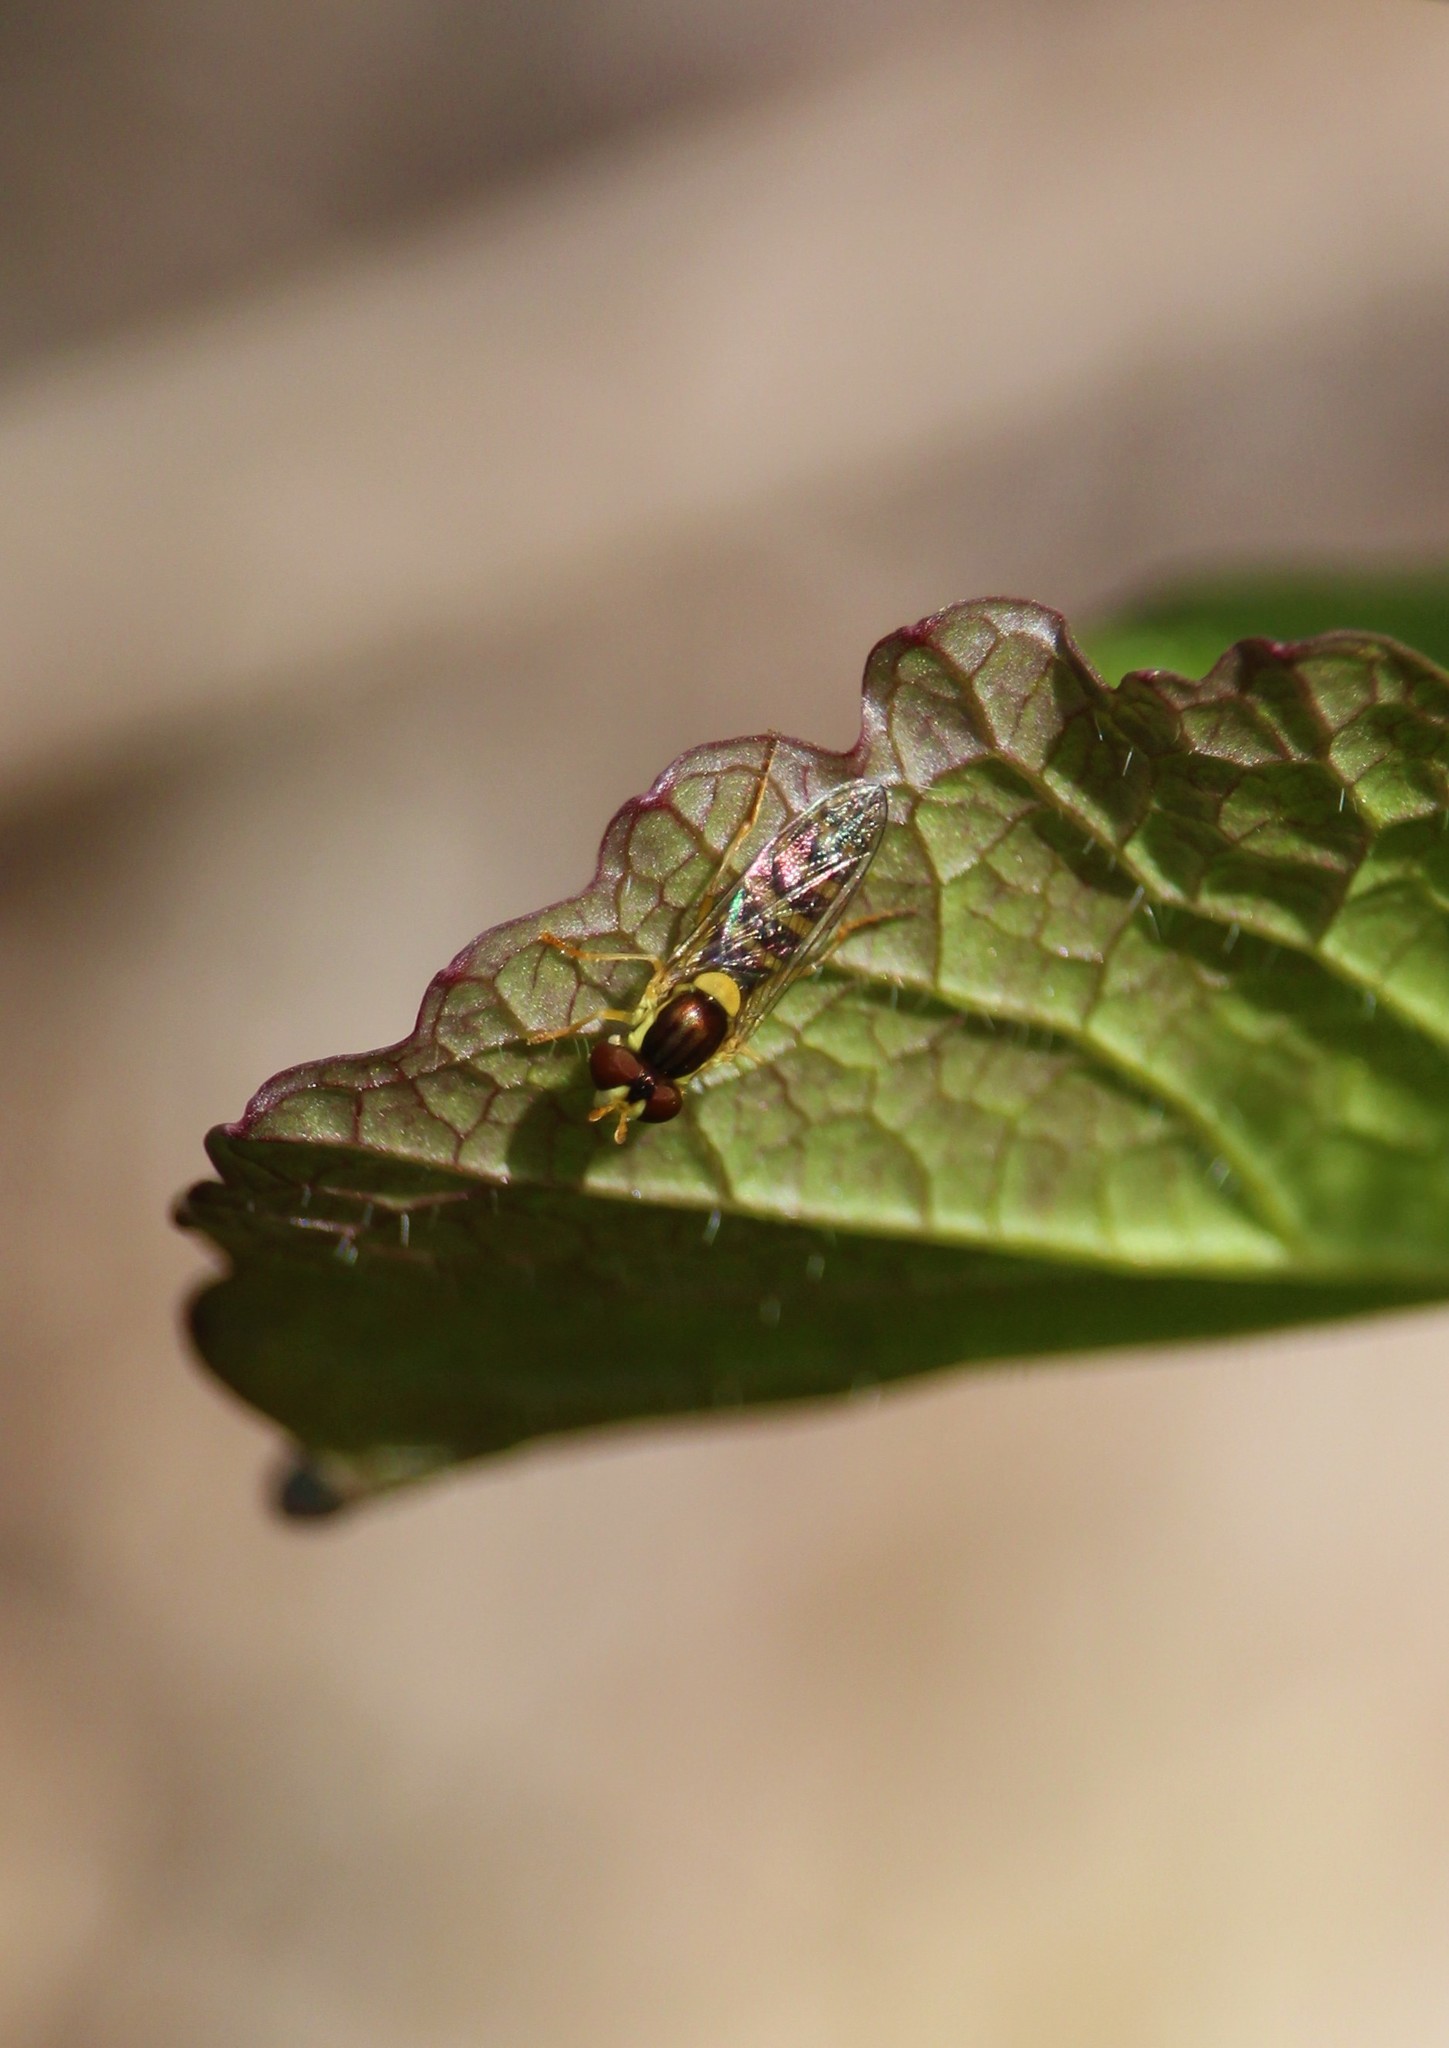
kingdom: Animalia
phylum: Arthropoda
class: Insecta
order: Diptera
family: Syrphidae
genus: Sphaerophoria
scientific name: Sphaerophoria
